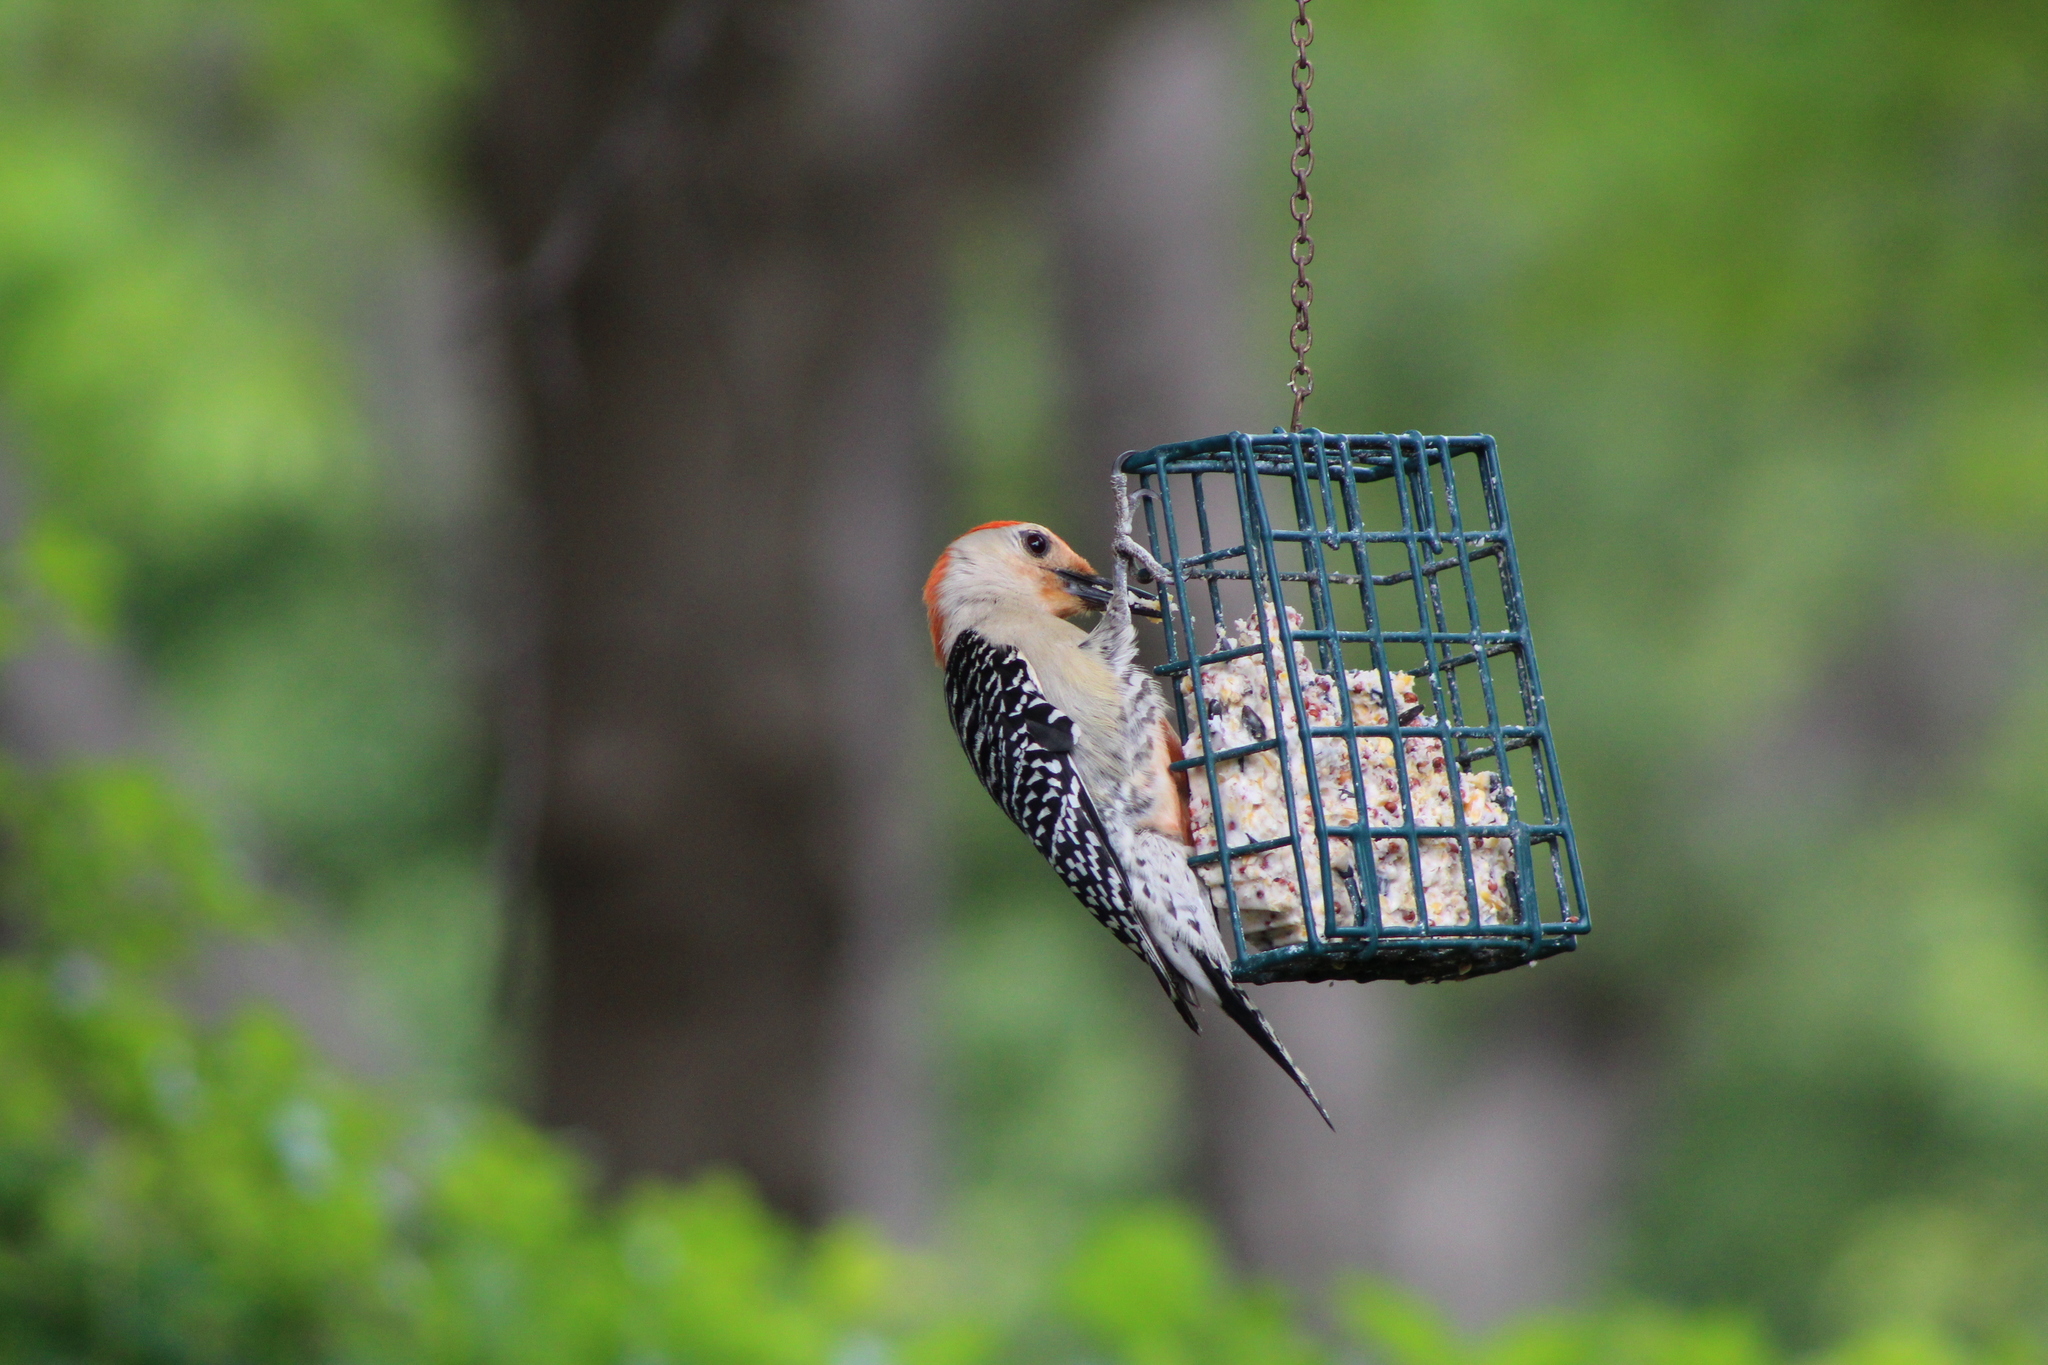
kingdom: Animalia
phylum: Chordata
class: Aves
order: Piciformes
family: Picidae
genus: Melanerpes
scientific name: Melanerpes carolinus
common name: Red-bellied woodpecker
